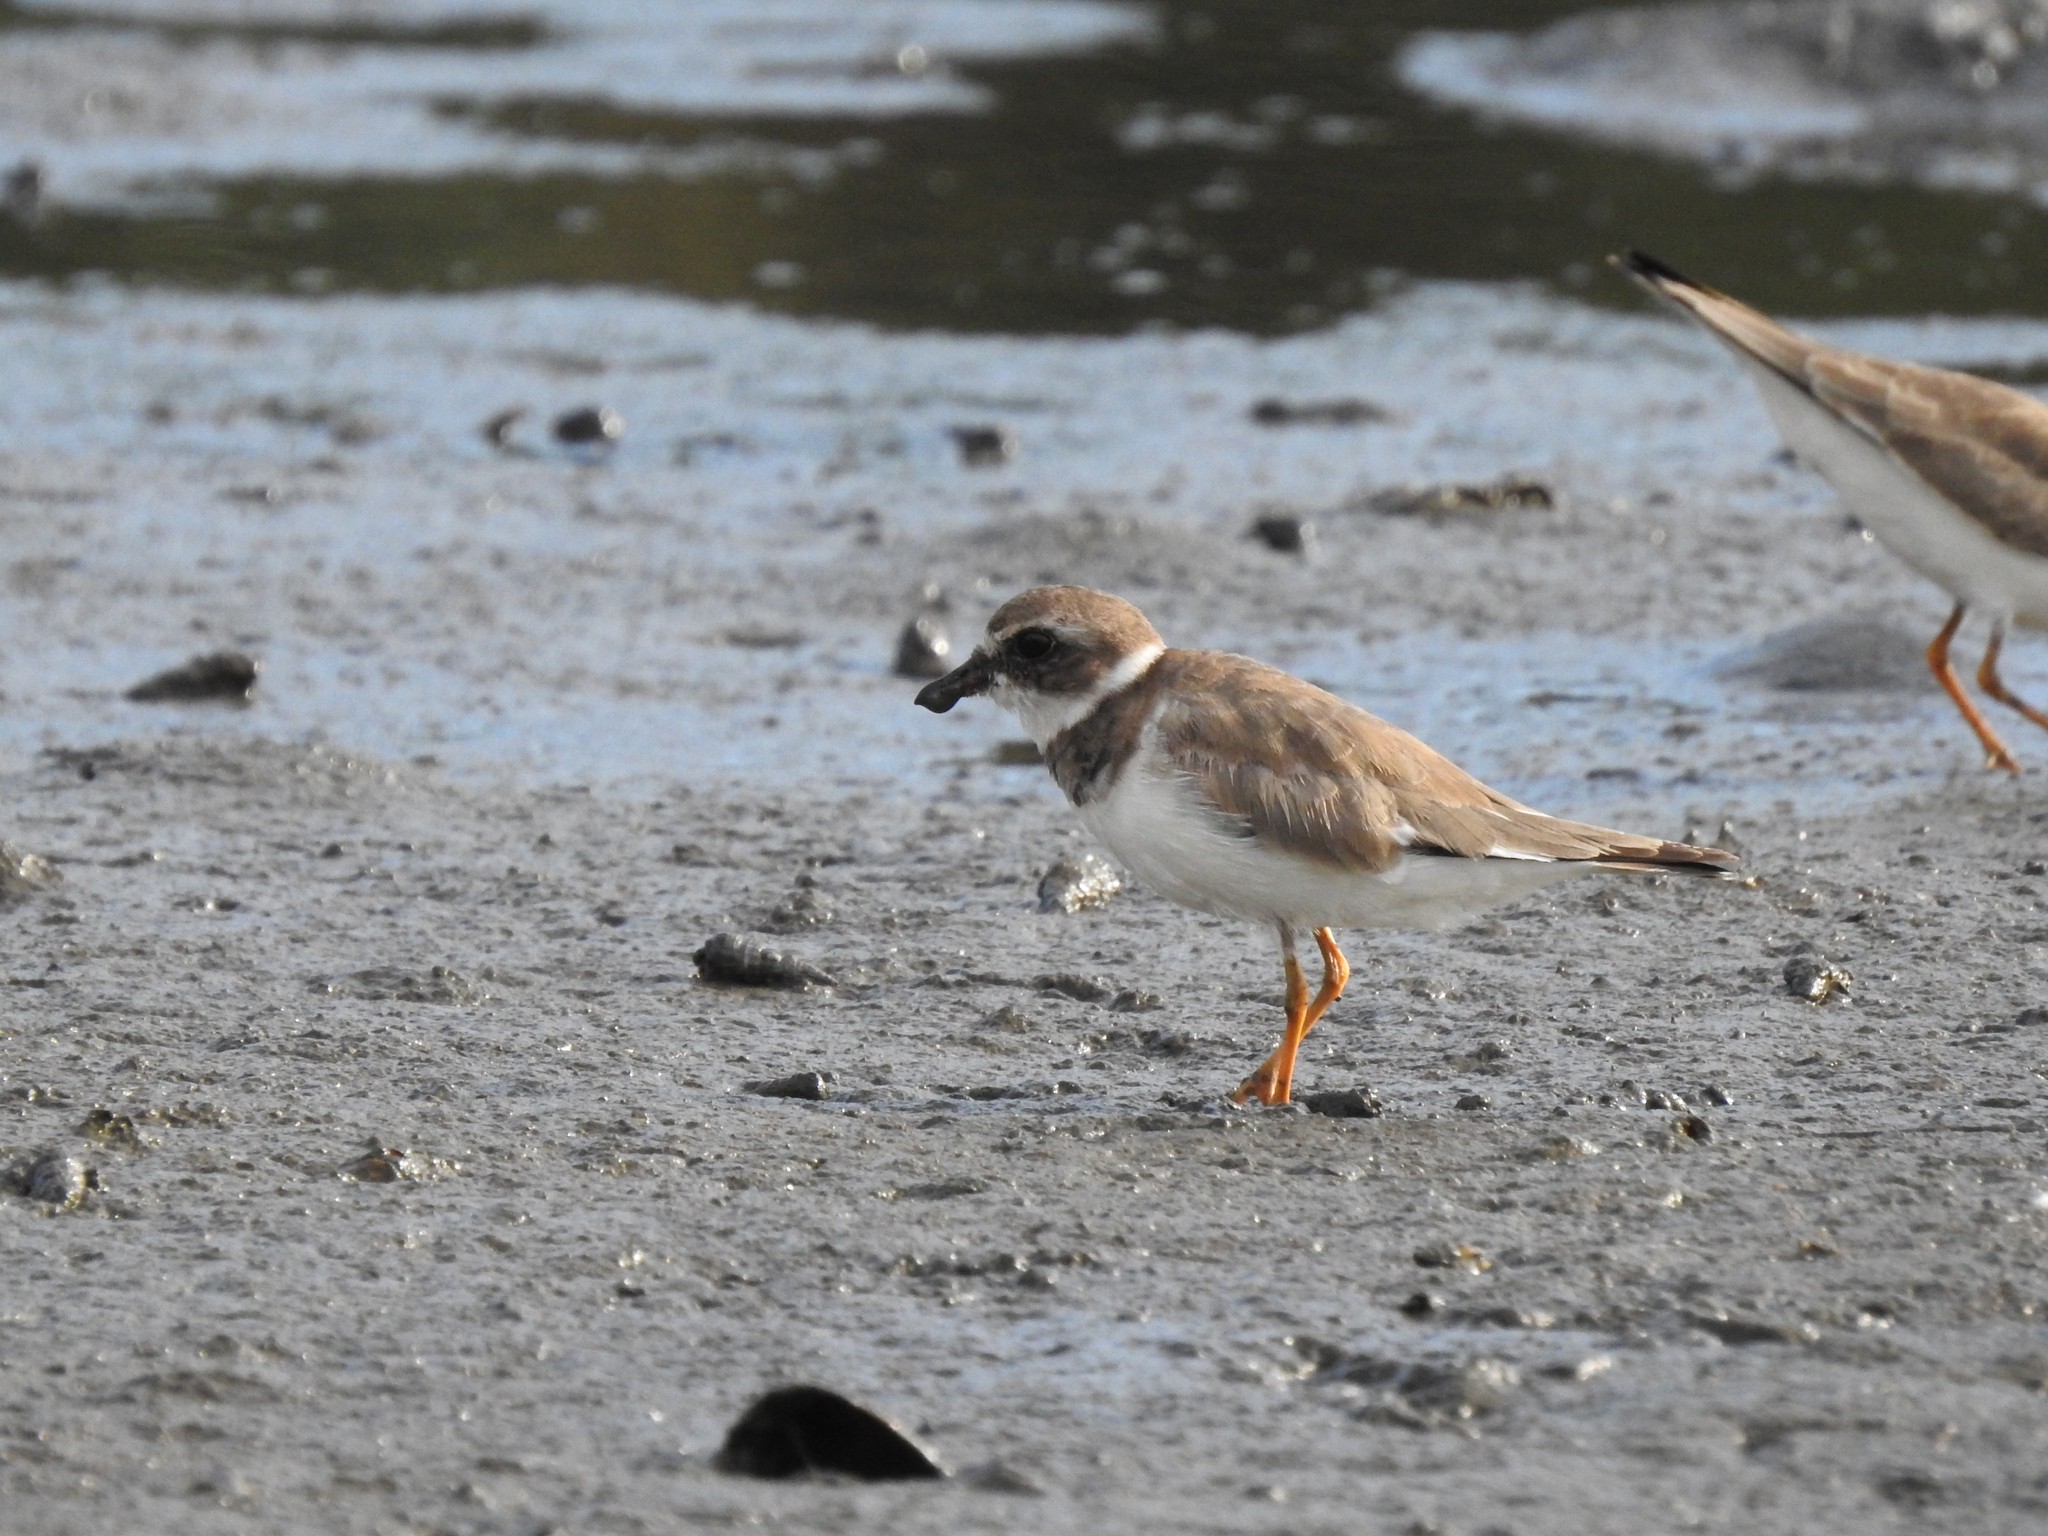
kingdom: Animalia
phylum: Chordata
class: Aves
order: Charadriiformes
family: Charadriidae
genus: Charadrius
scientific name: Charadrius semipalmatus
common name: Semipalmated plover
